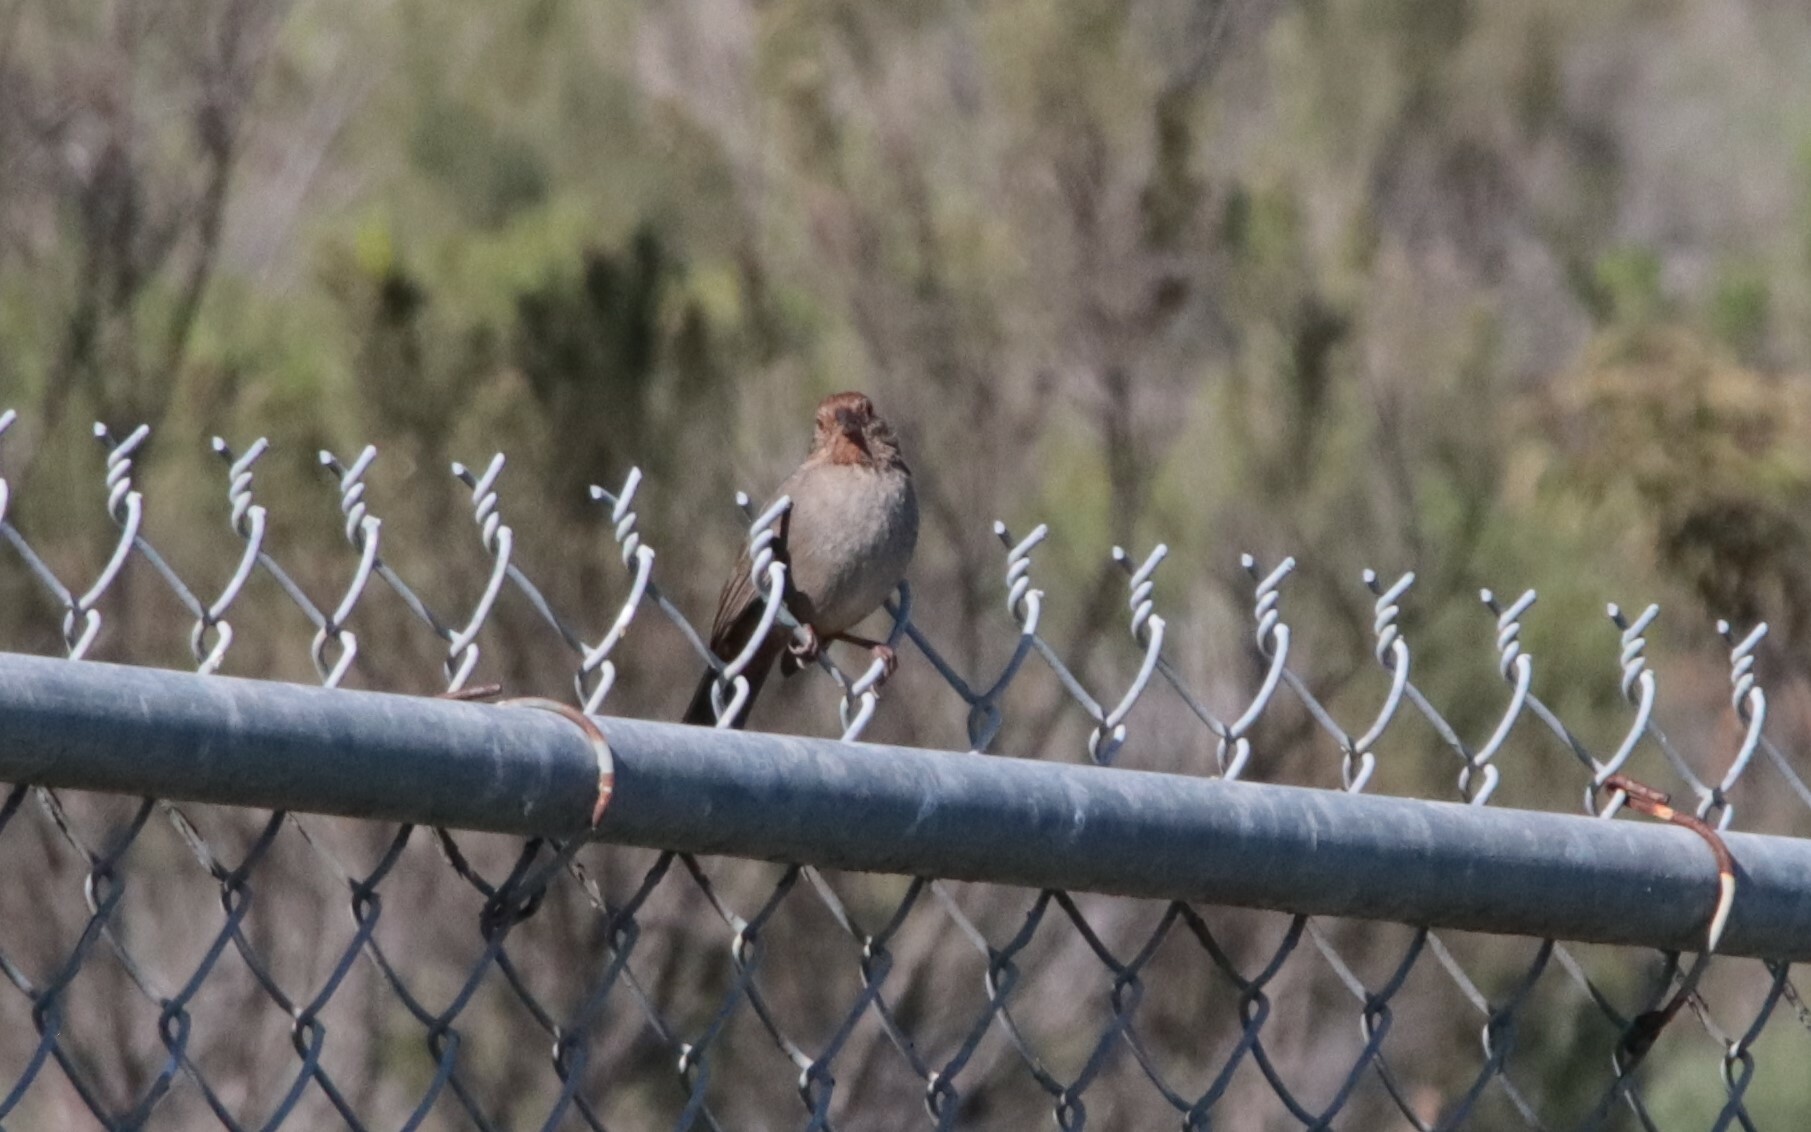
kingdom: Animalia
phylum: Chordata
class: Aves
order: Passeriformes
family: Passerellidae
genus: Melozone
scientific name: Melozone crissalis
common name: California towhee
